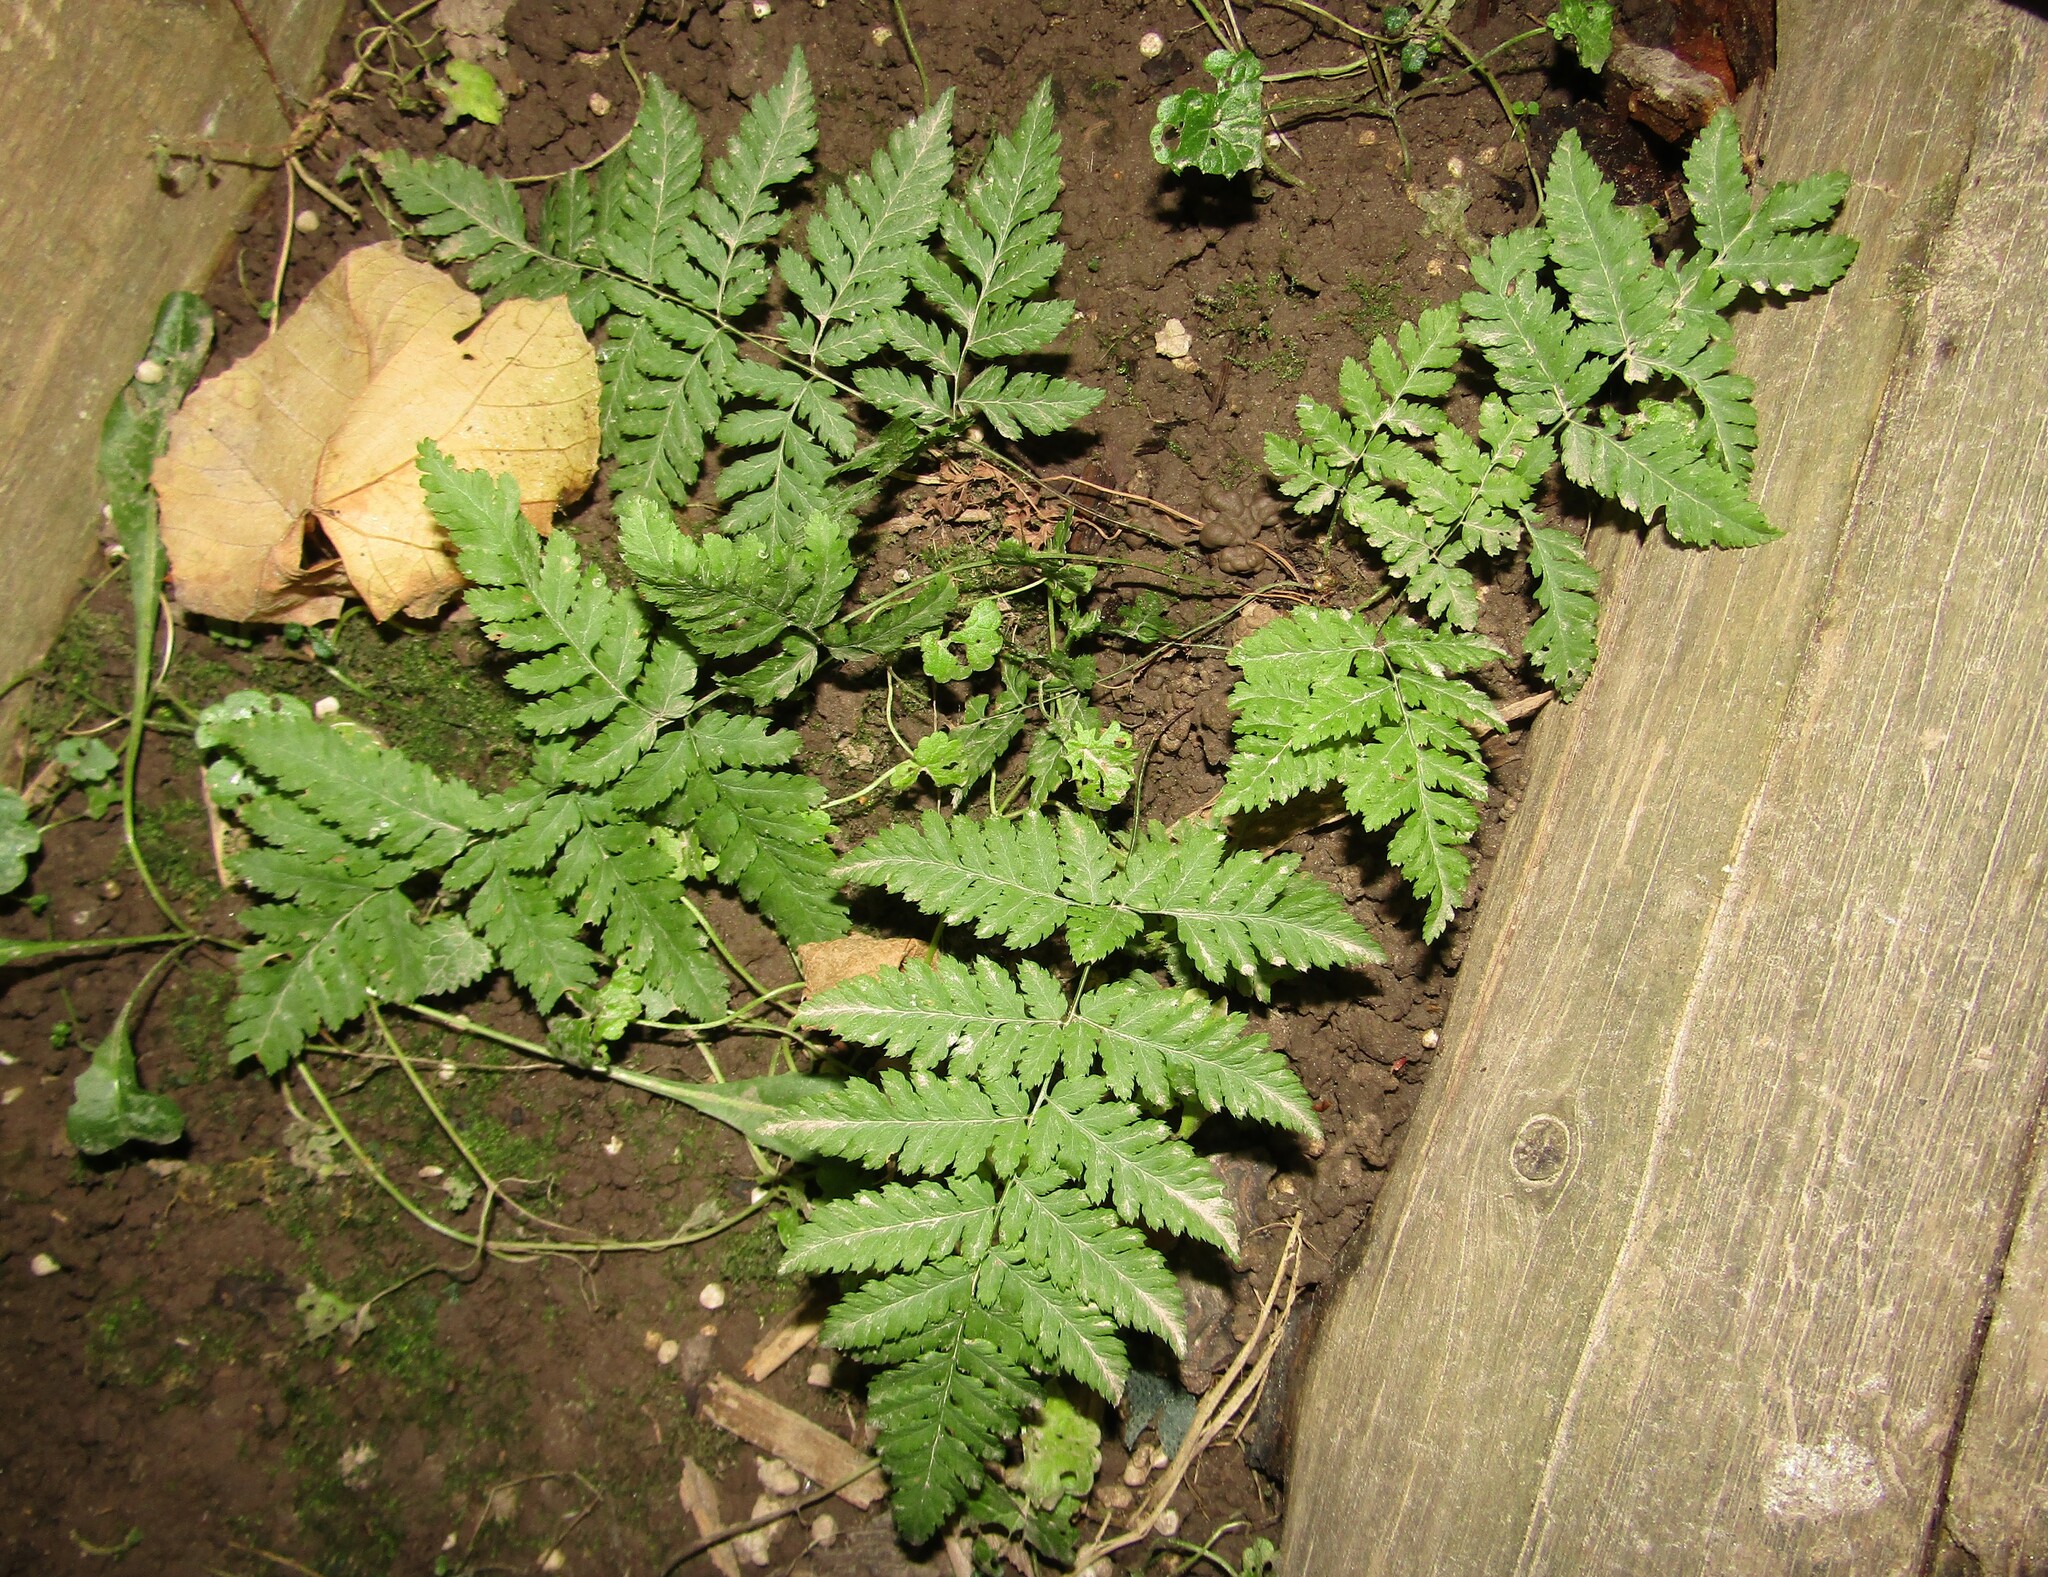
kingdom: Plantae
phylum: Tracheophyta
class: Polypodiopsida
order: Polypodiales
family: Dryopteridaceae
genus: Dryopteris
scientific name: Dryopteris carthusiana
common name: Narrow buckler-fern
